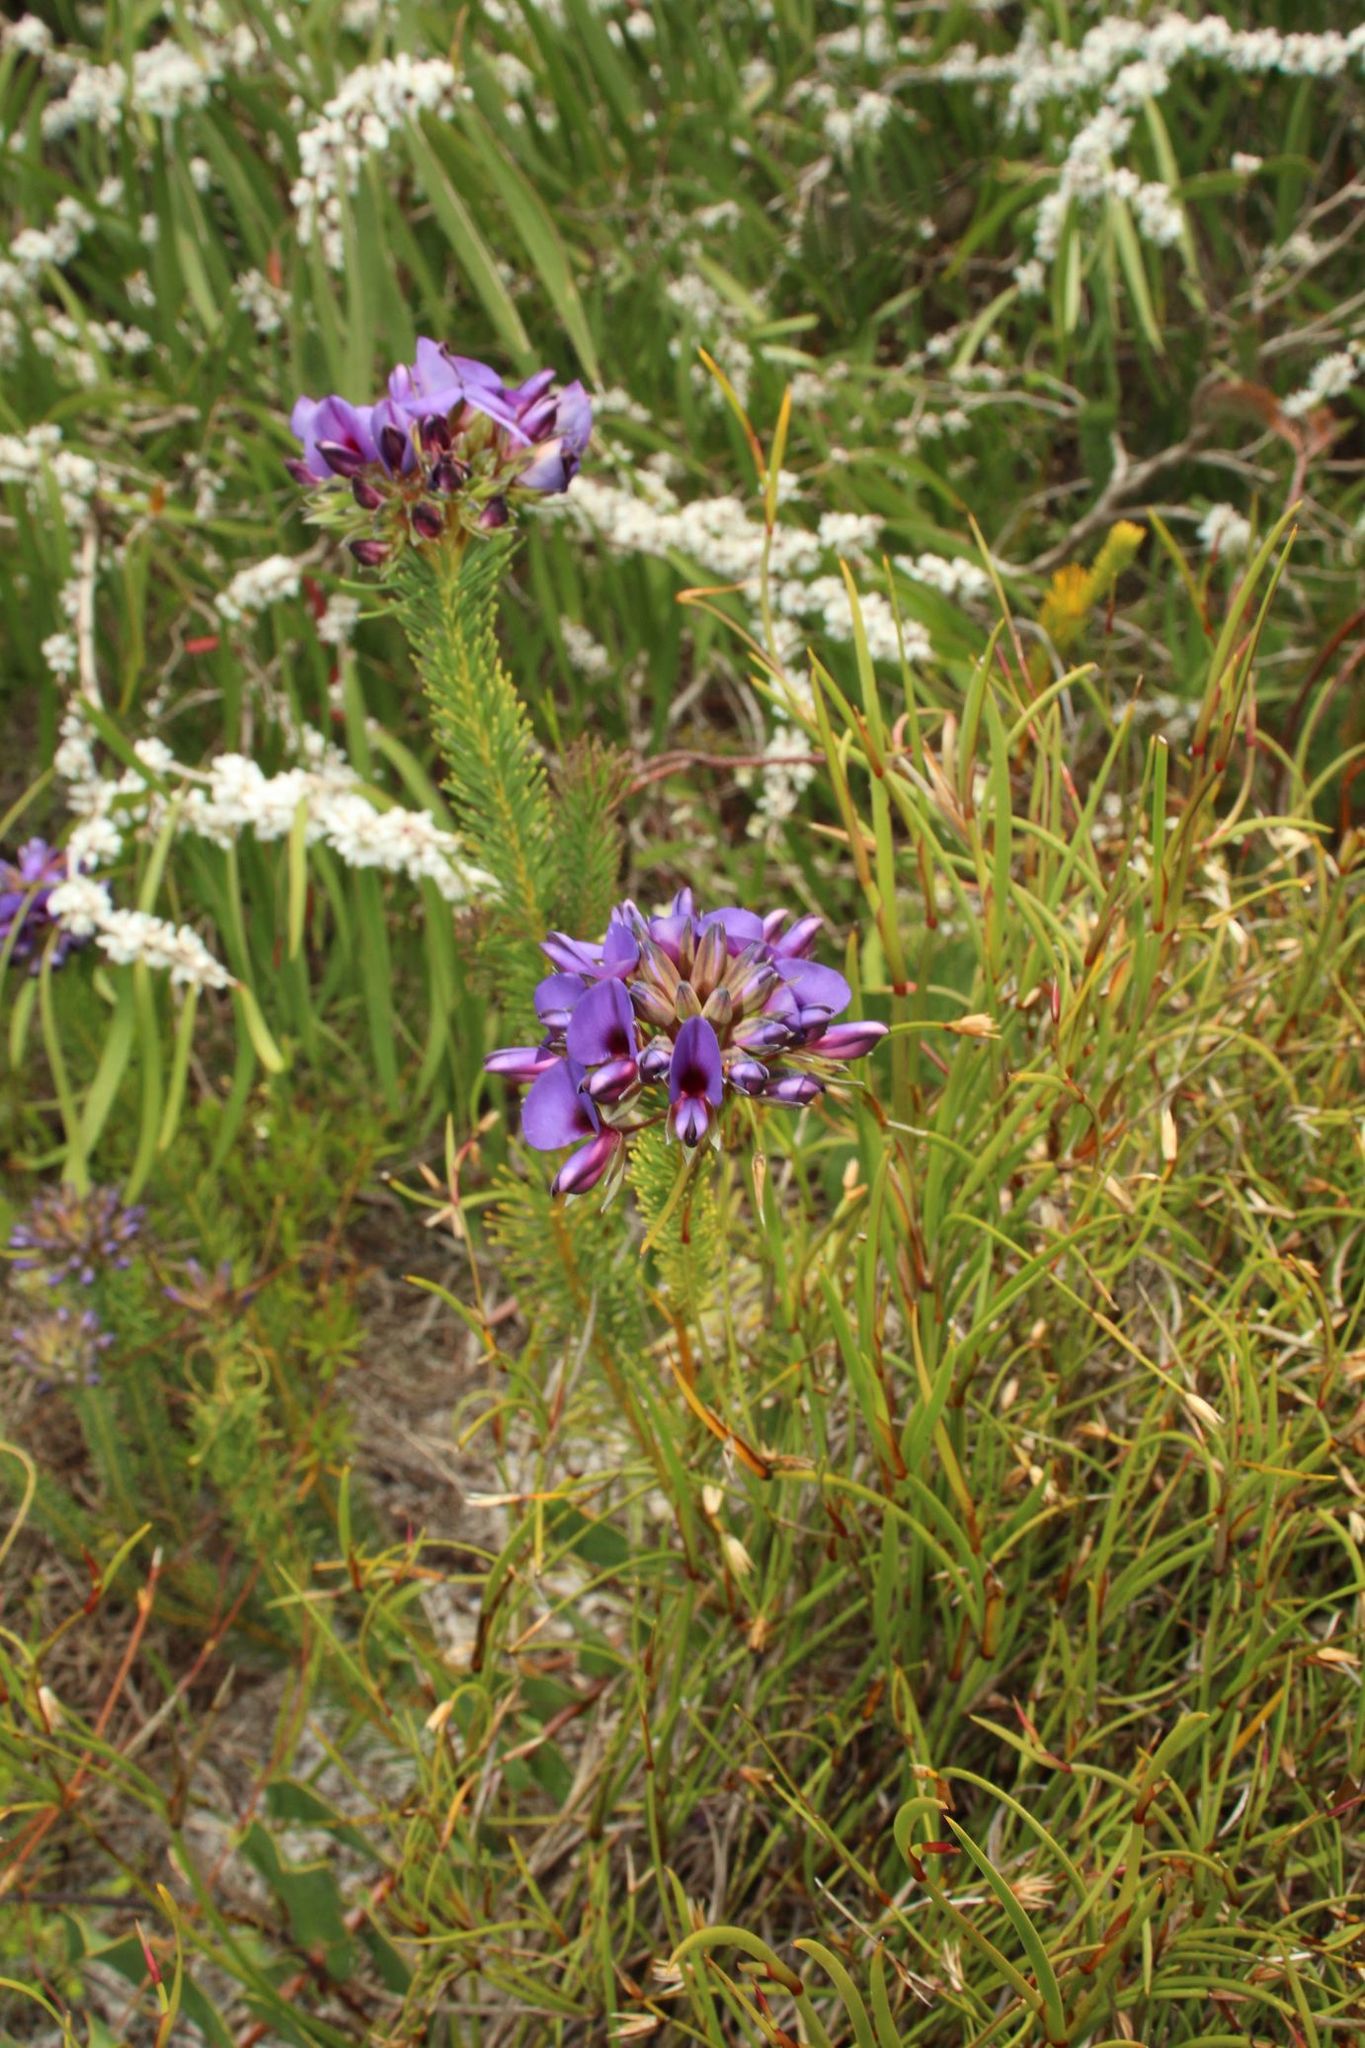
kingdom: Plantae
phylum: Tracheophyta
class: Magnoliopsida
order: Fabales
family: Fabaceae
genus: Gompholobium
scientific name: Gompholobium confertum
